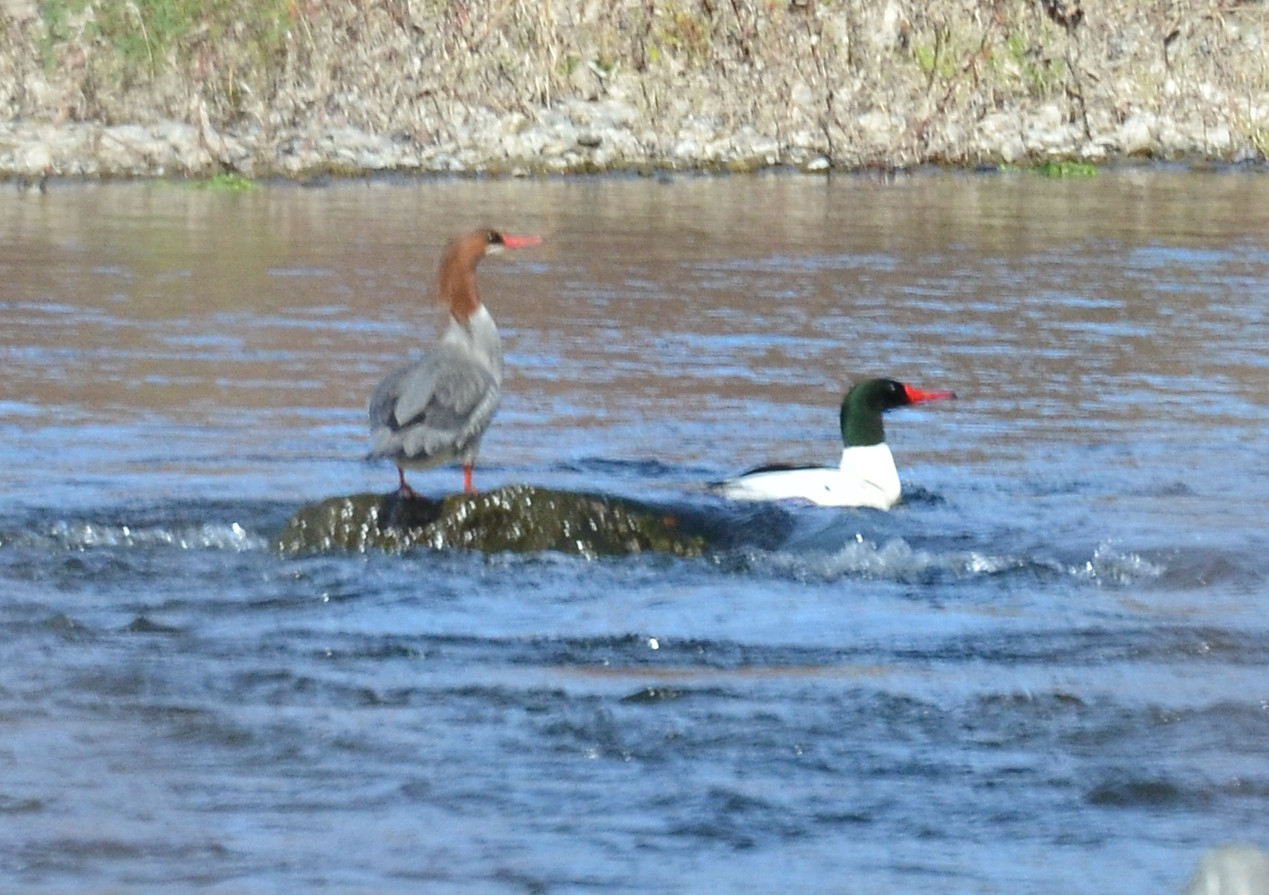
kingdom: Animalia
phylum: Chordata
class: Aves
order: Anseriformes
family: Anatidae
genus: Mergus
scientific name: Mergus merganser
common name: Common merganser
